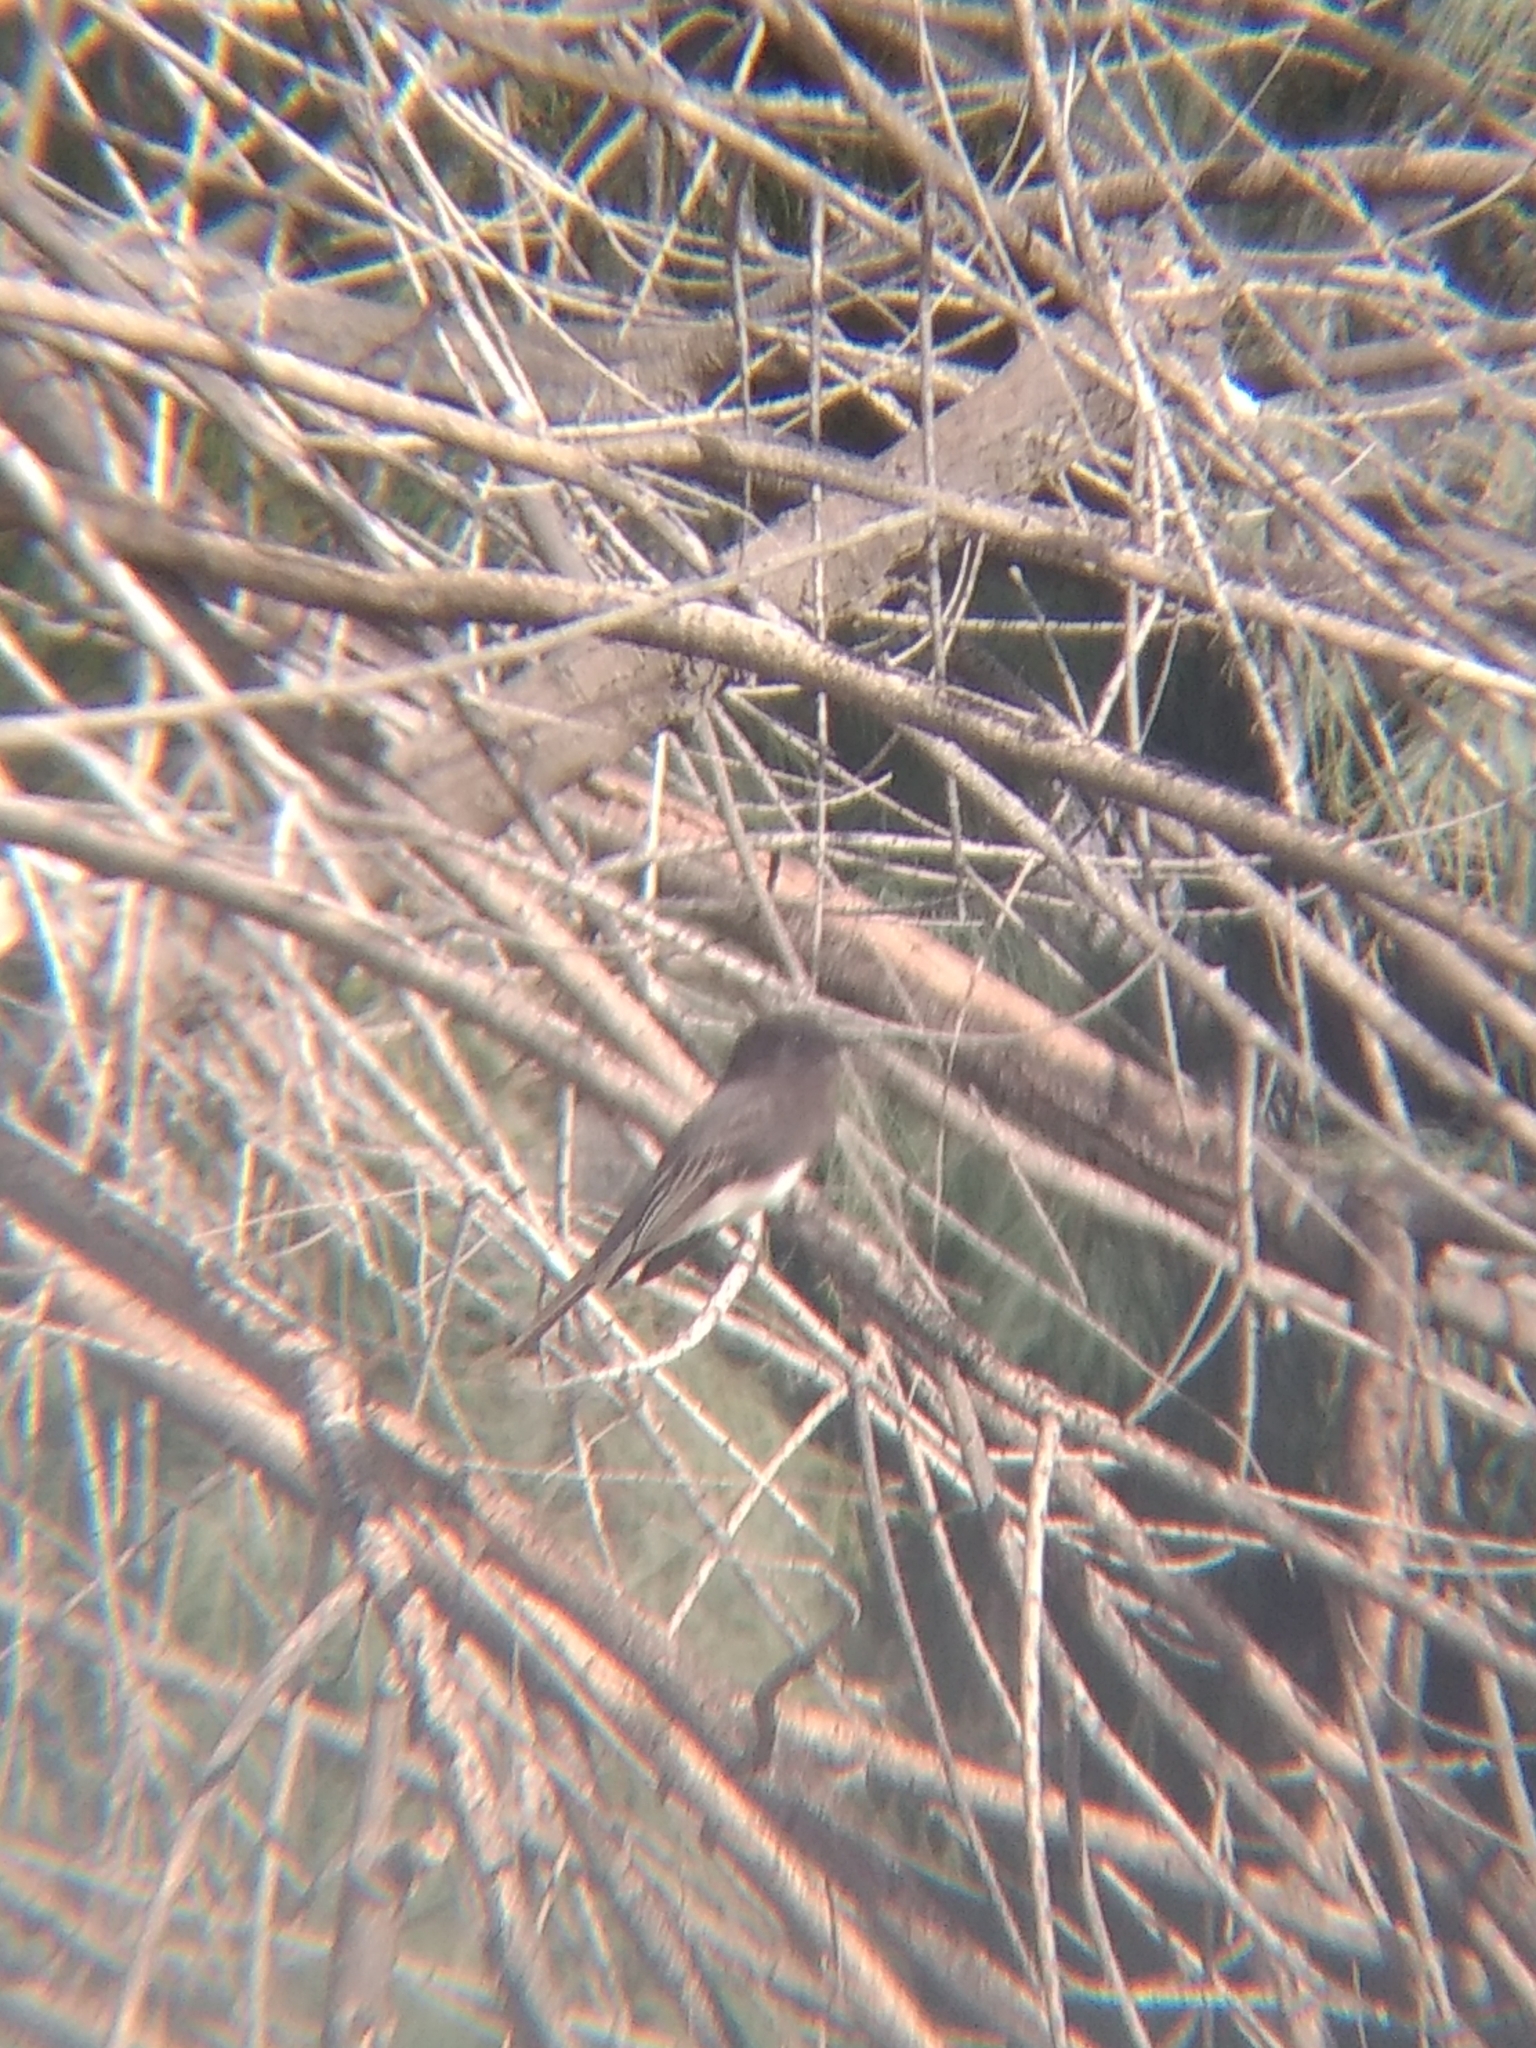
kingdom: Animalia
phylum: Chordata
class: Aves
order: Passeriformes
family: Tyrannidae
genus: Sayornis
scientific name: Sayornis nigricans
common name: Black phoebe
